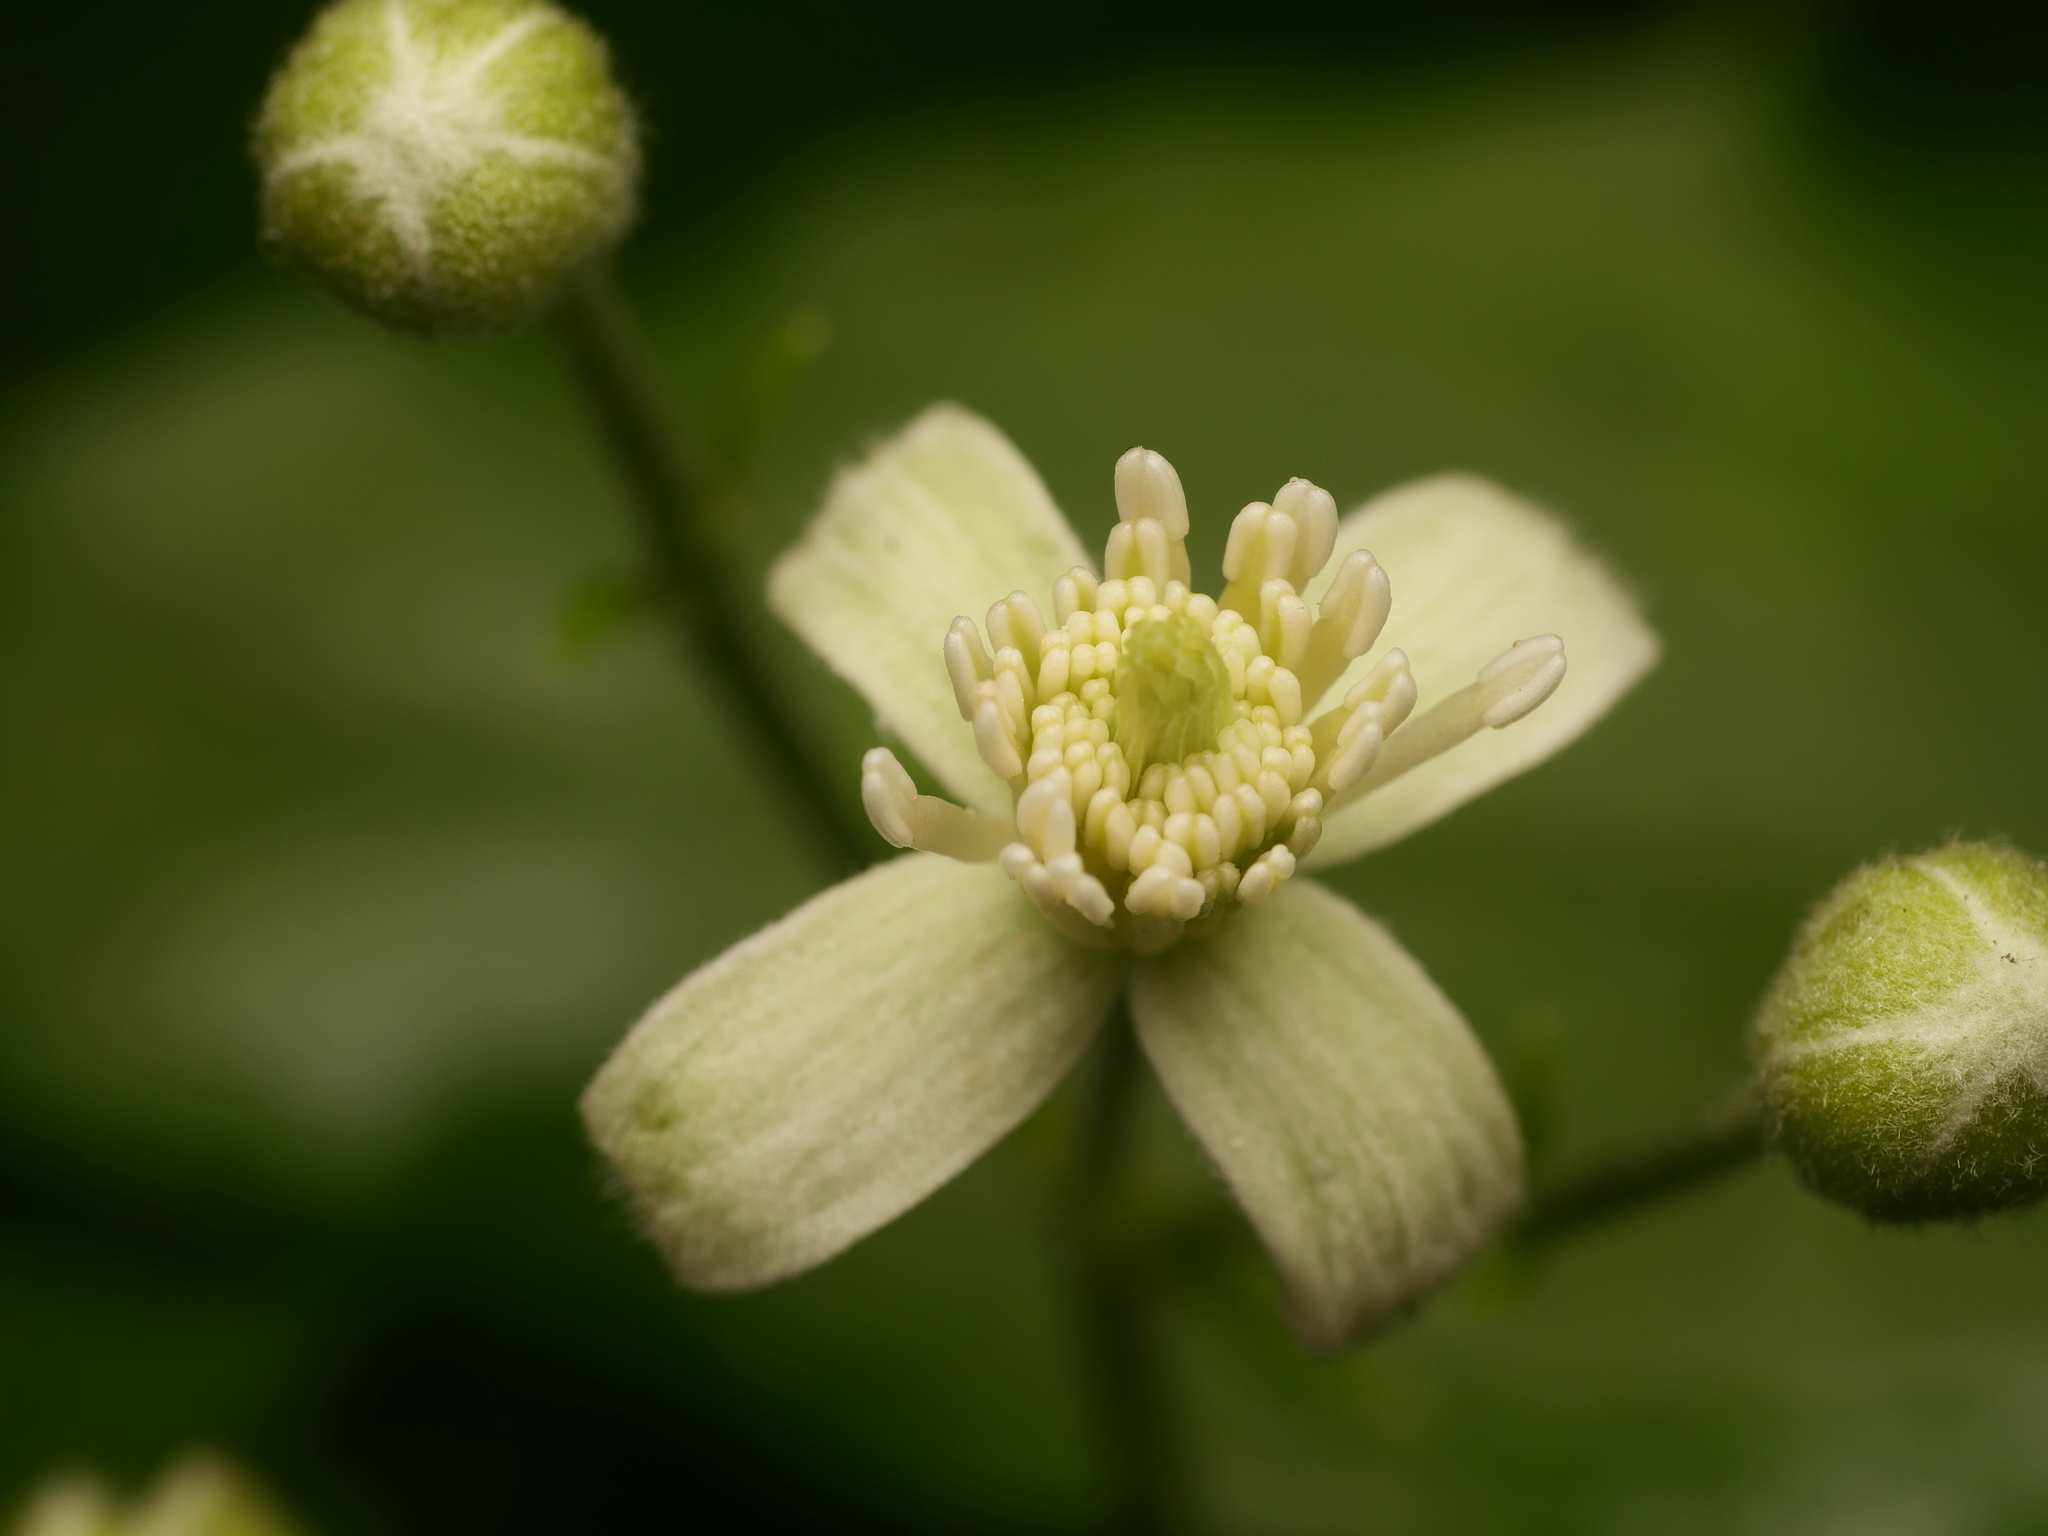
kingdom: Plantae
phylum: Tracheophyta
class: Magnoliopsida
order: Ranunculales
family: Ranunculaceae
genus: Clematis
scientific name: Clematis vitalba
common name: Evergreen clematis
